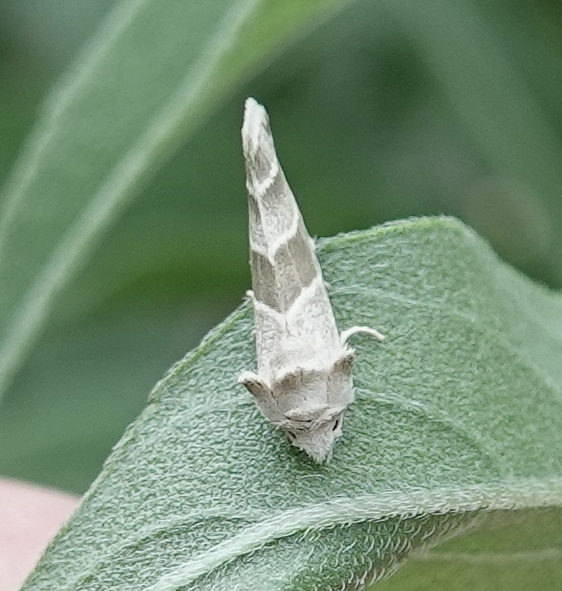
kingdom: Animalia
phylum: Arthropoda
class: Insecta
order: Lepidoptera
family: Noctuidae
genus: Plagiomimicus
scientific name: Plagiomimicus tepperi
